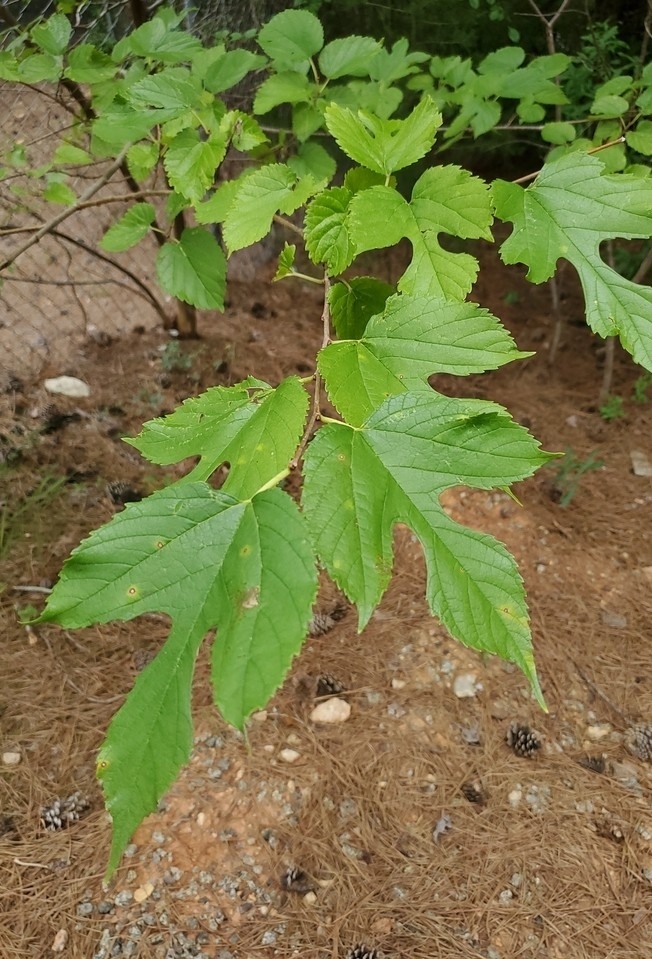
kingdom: Plantae
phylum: Tracheophyta
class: Magnoliopsida
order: Rosales
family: Moraceae
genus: Morus
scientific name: Morus rubra
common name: Red mulberry
